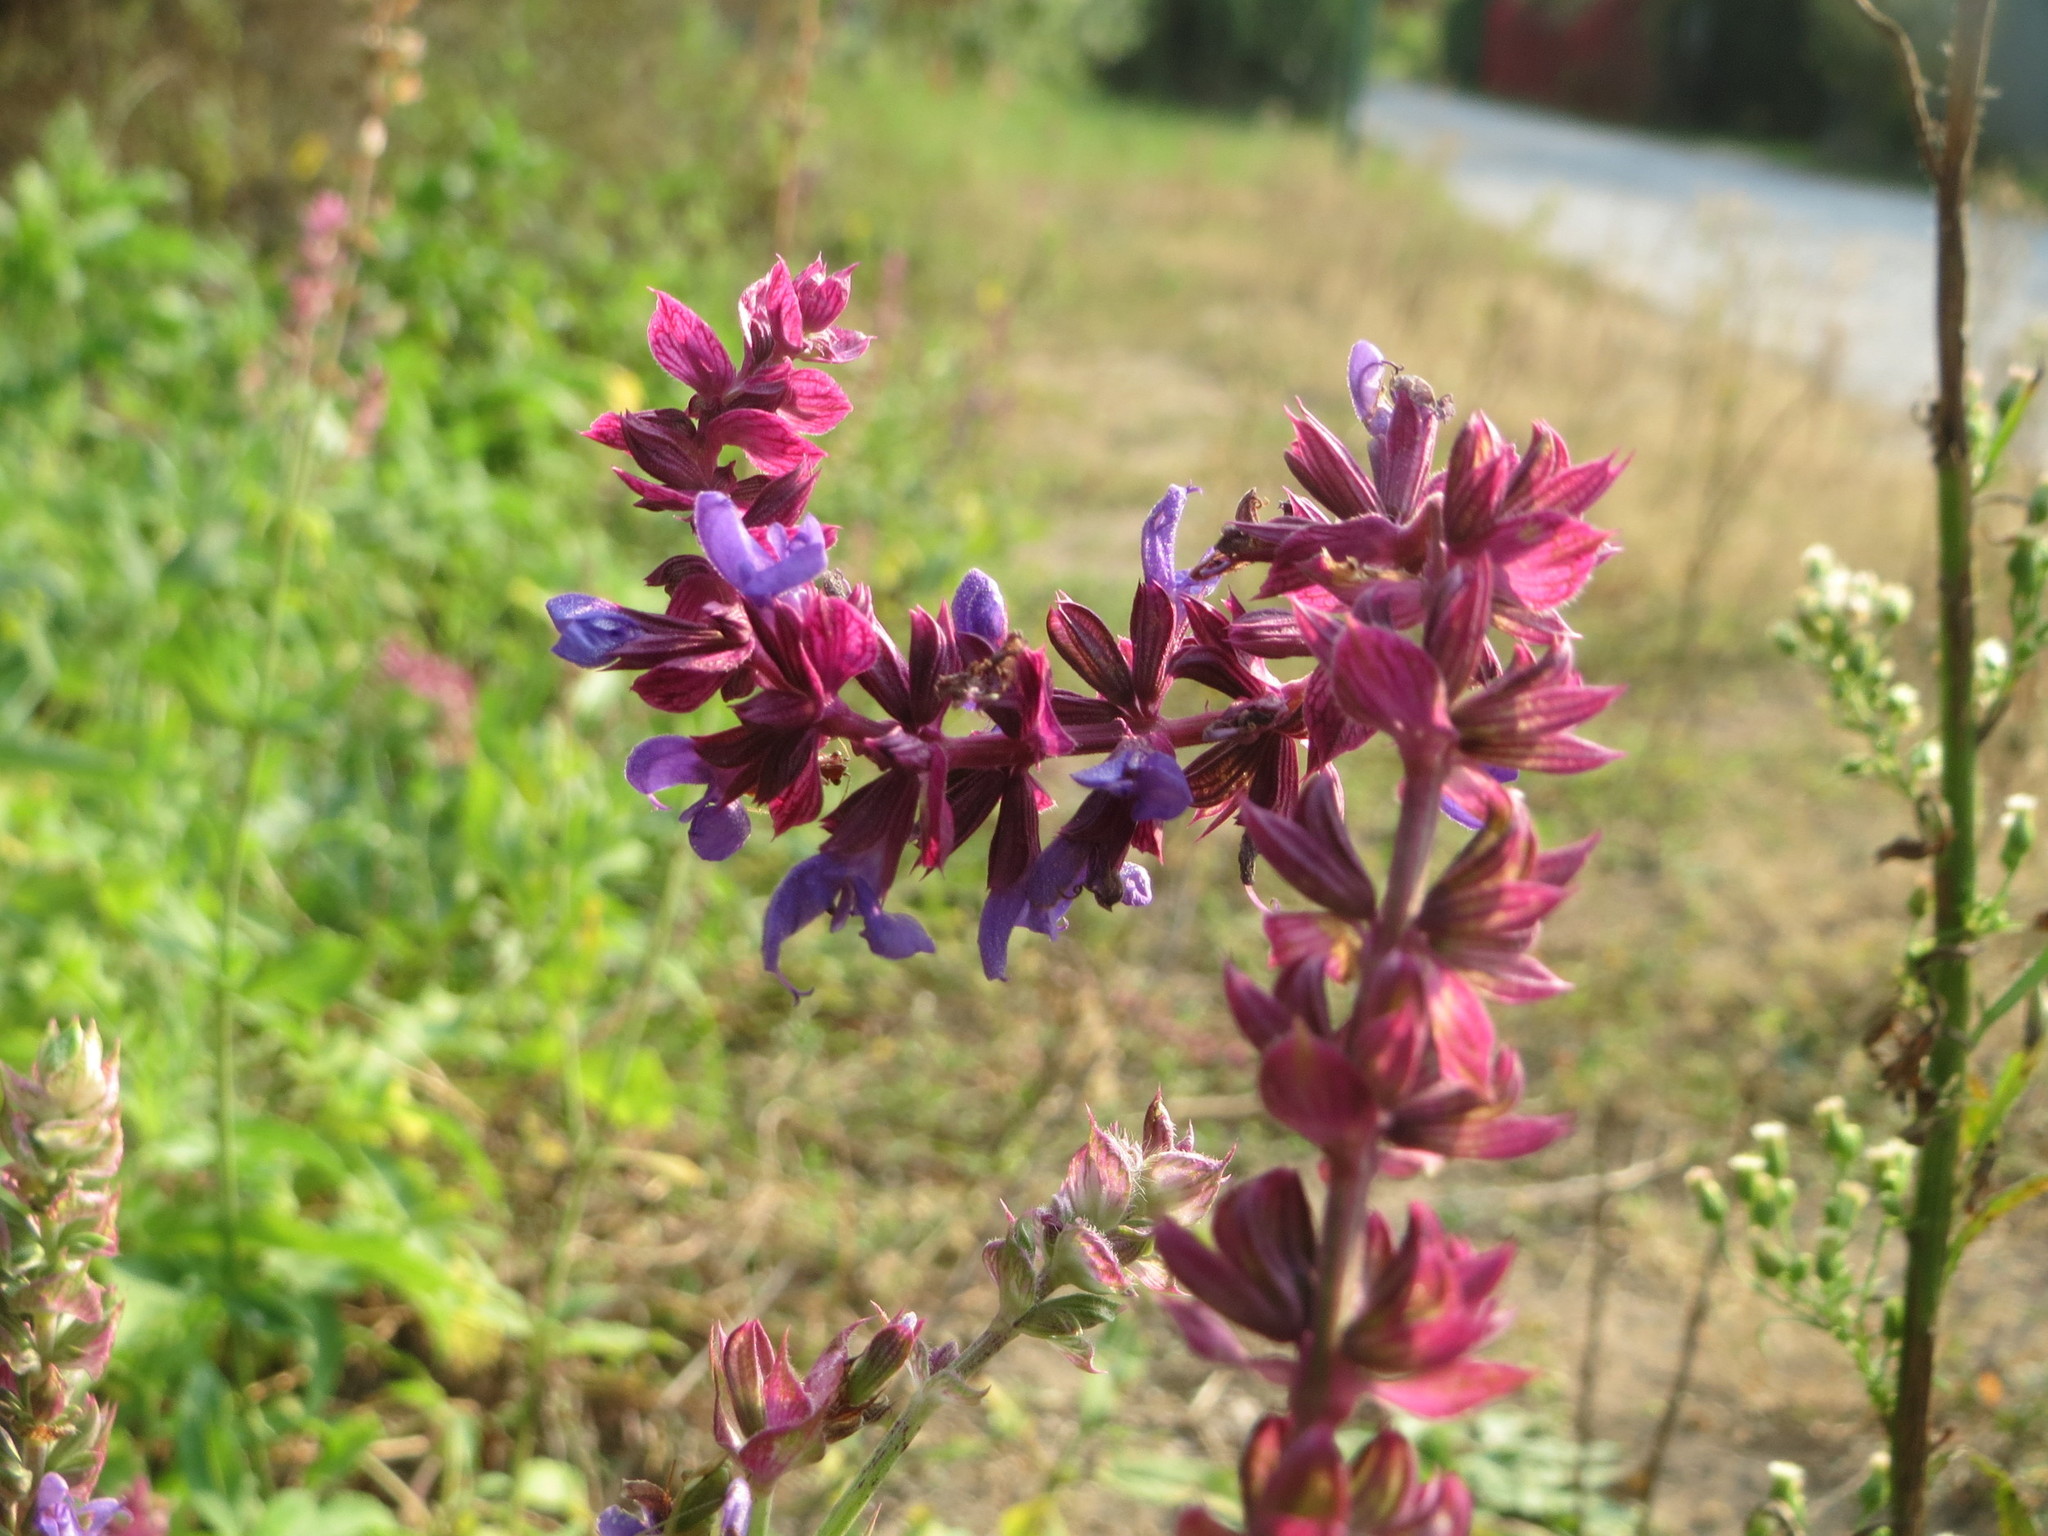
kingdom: Plantae
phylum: Tracheophyta
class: Magnoliopsida
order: Lamiales
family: Lamiaceae
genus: Salvia
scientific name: Salvia nemorosa
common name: Balkan clary
